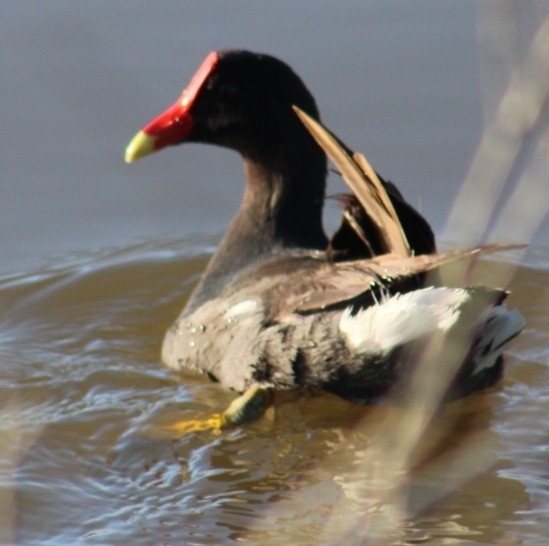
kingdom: Animalia
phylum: Chordata
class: Aves
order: Gruiformes
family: Rallidae
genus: Gallinula
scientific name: Gallinula chloropus
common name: Common moorhen
